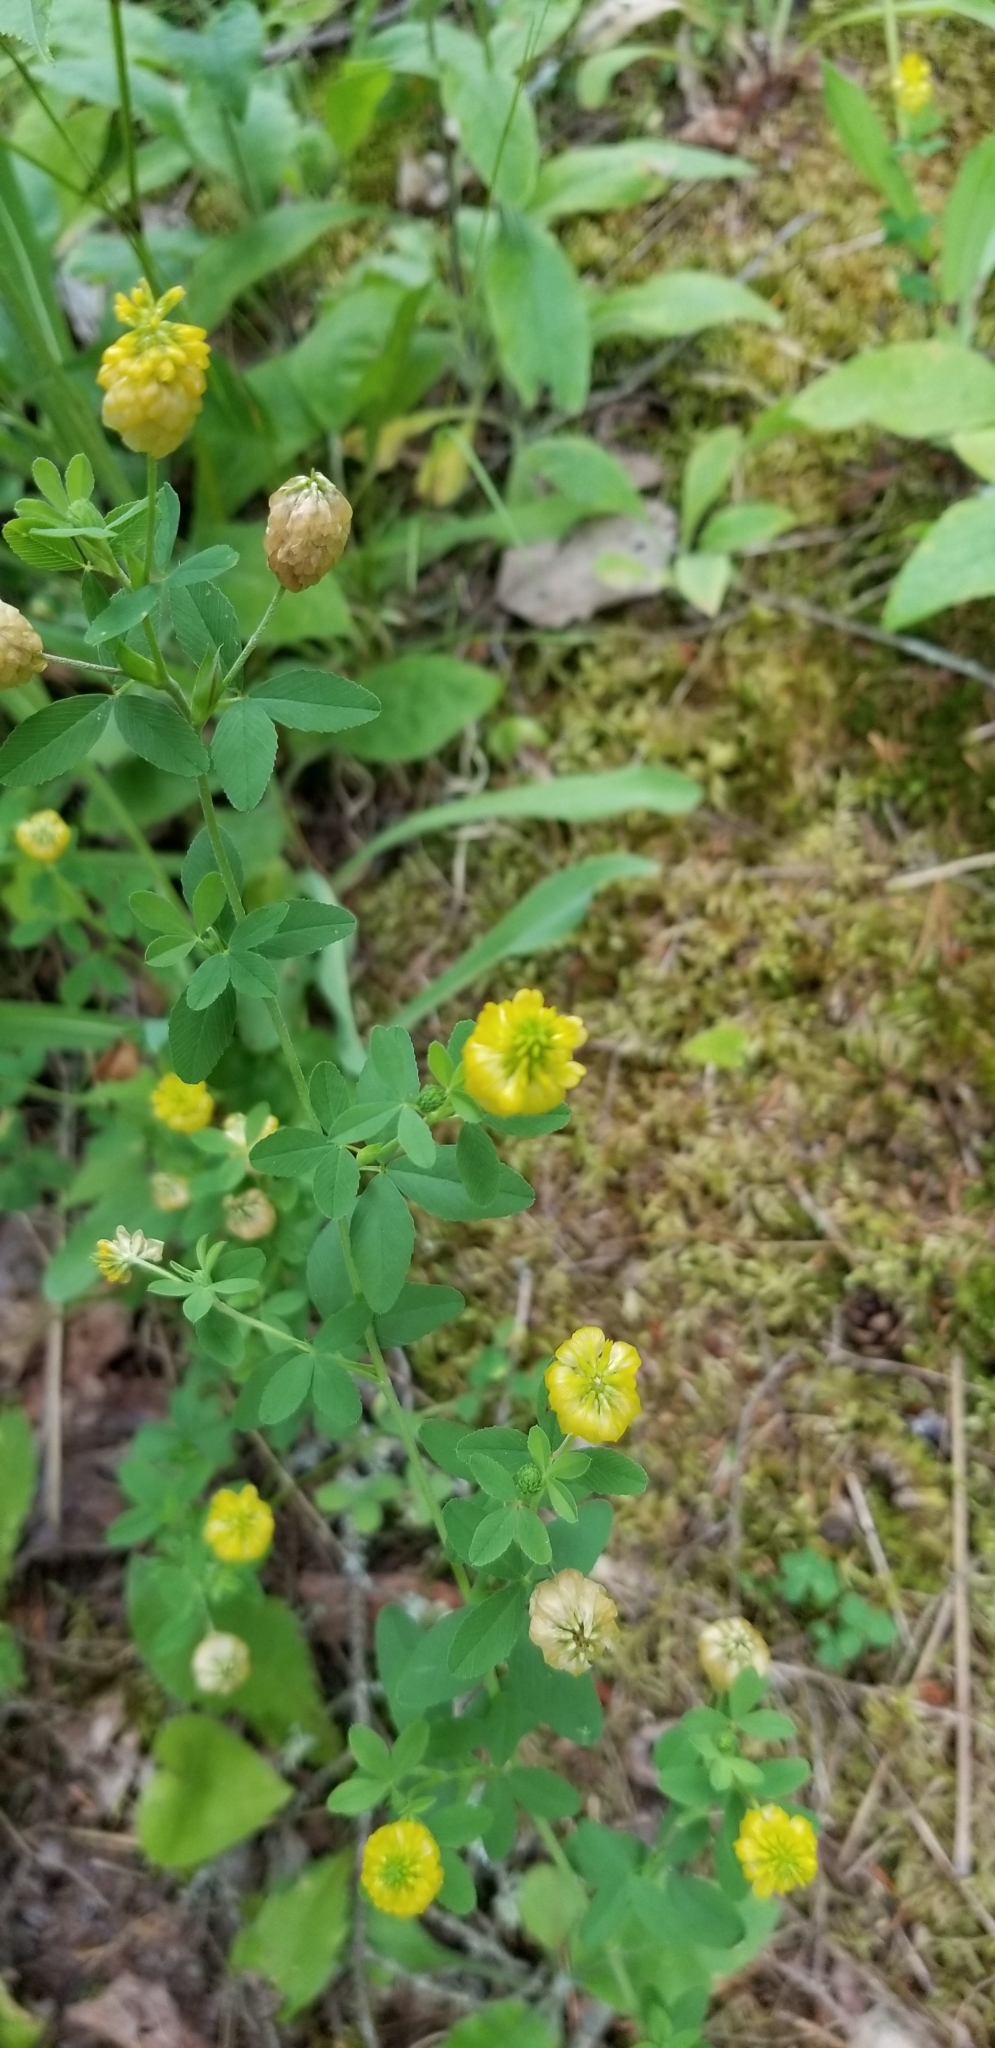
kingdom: Plantae
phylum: Tracheophyta
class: Magnoliopsida
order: Fabales
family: Fabaceae
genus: Trifolium
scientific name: Trifolium aureum
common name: Golden clover
